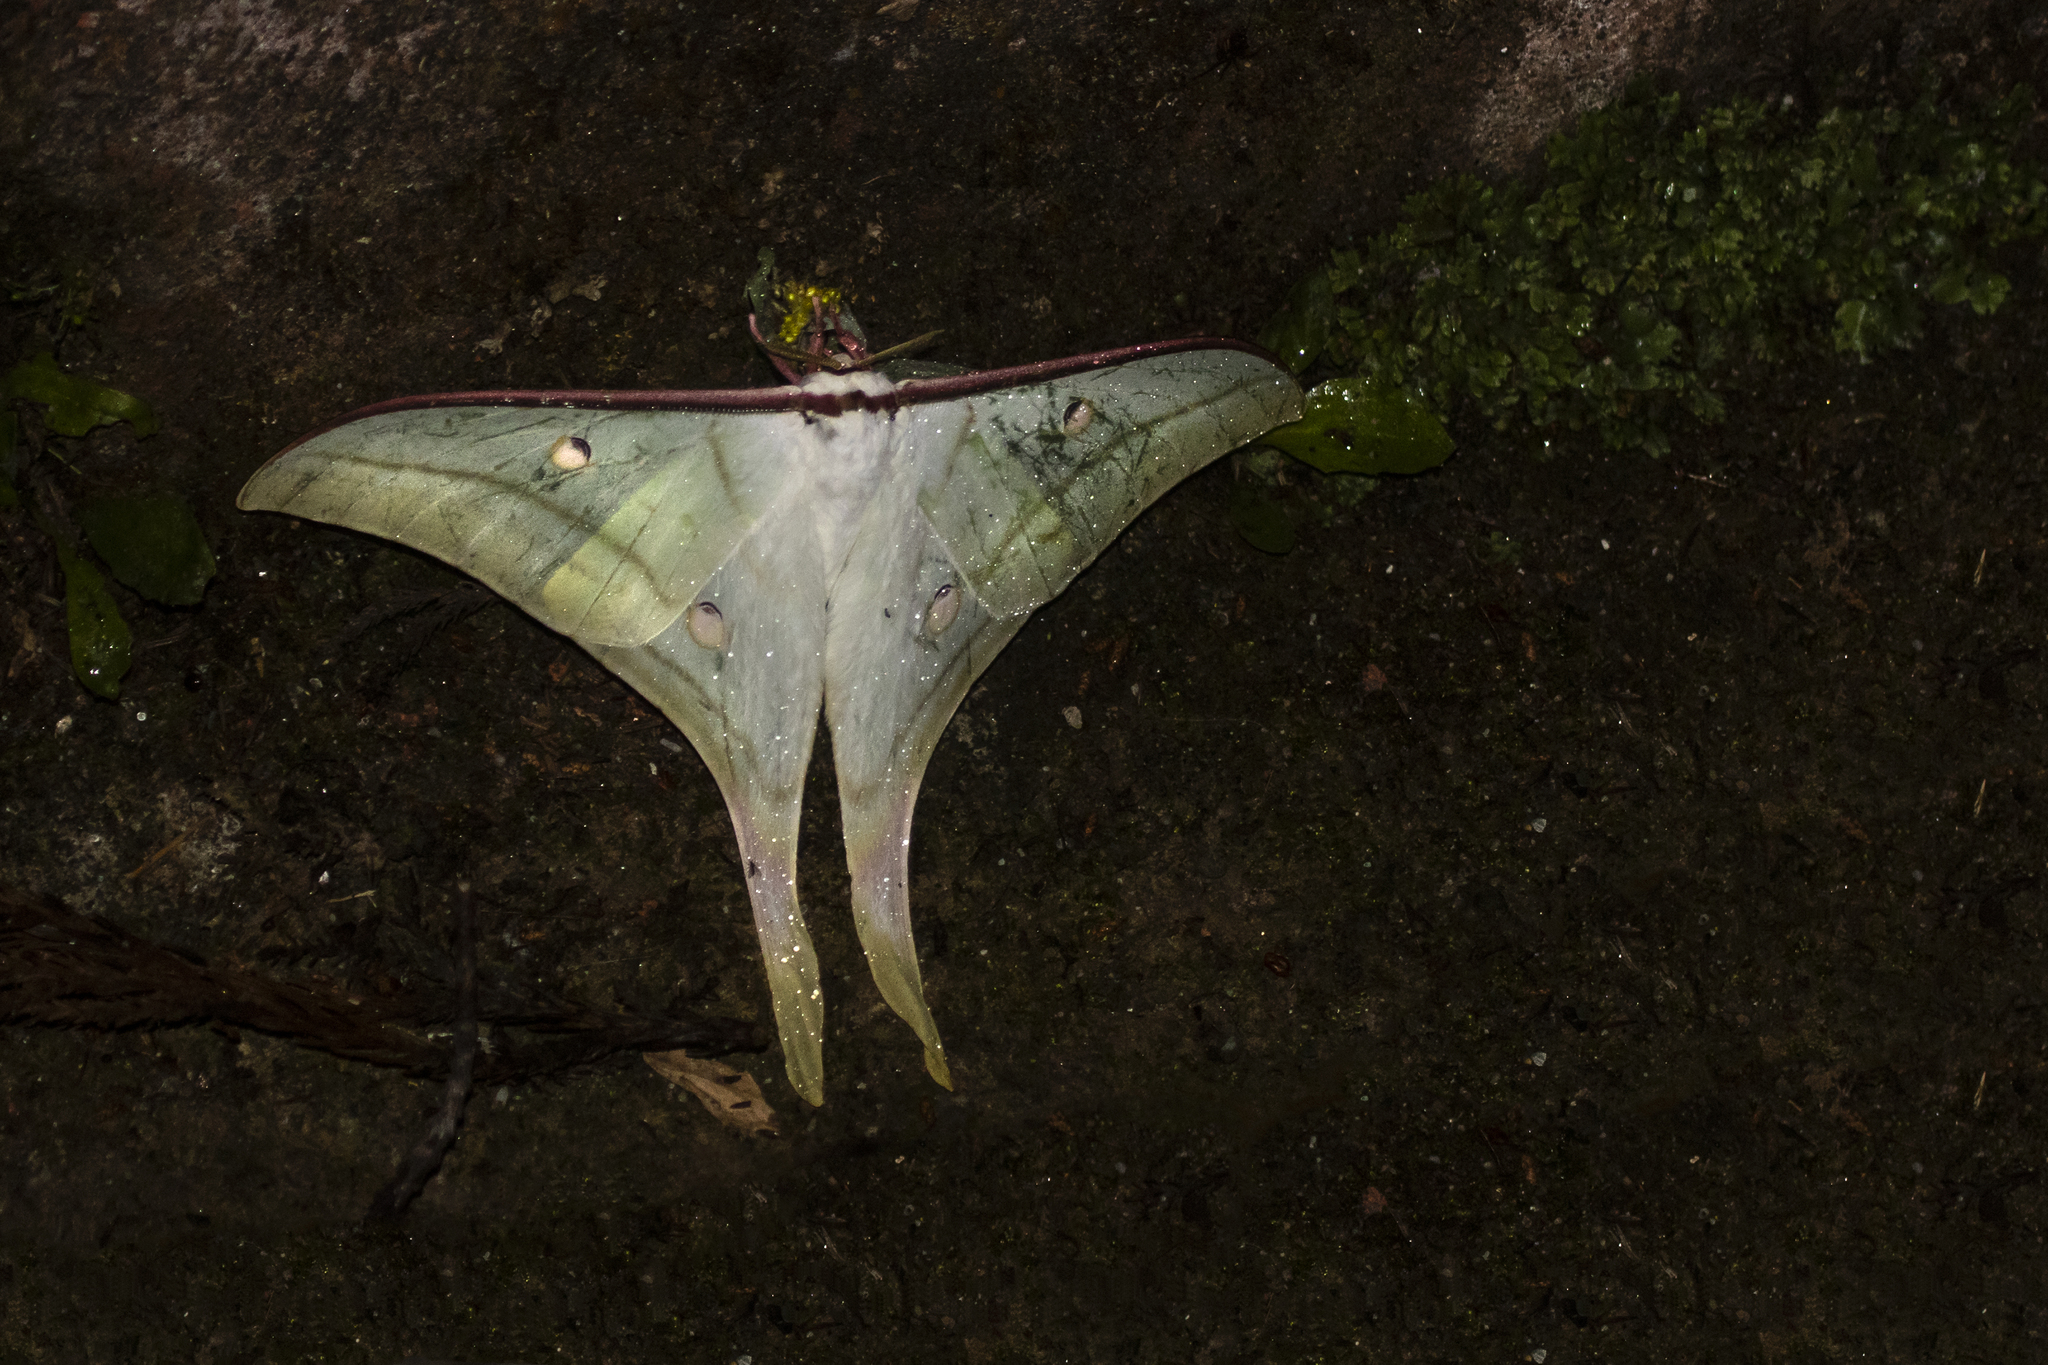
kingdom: Animalia
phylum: Arthropoda
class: Insecta
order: Lepidoptera
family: Saturniidae
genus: Actias
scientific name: Actias selene
